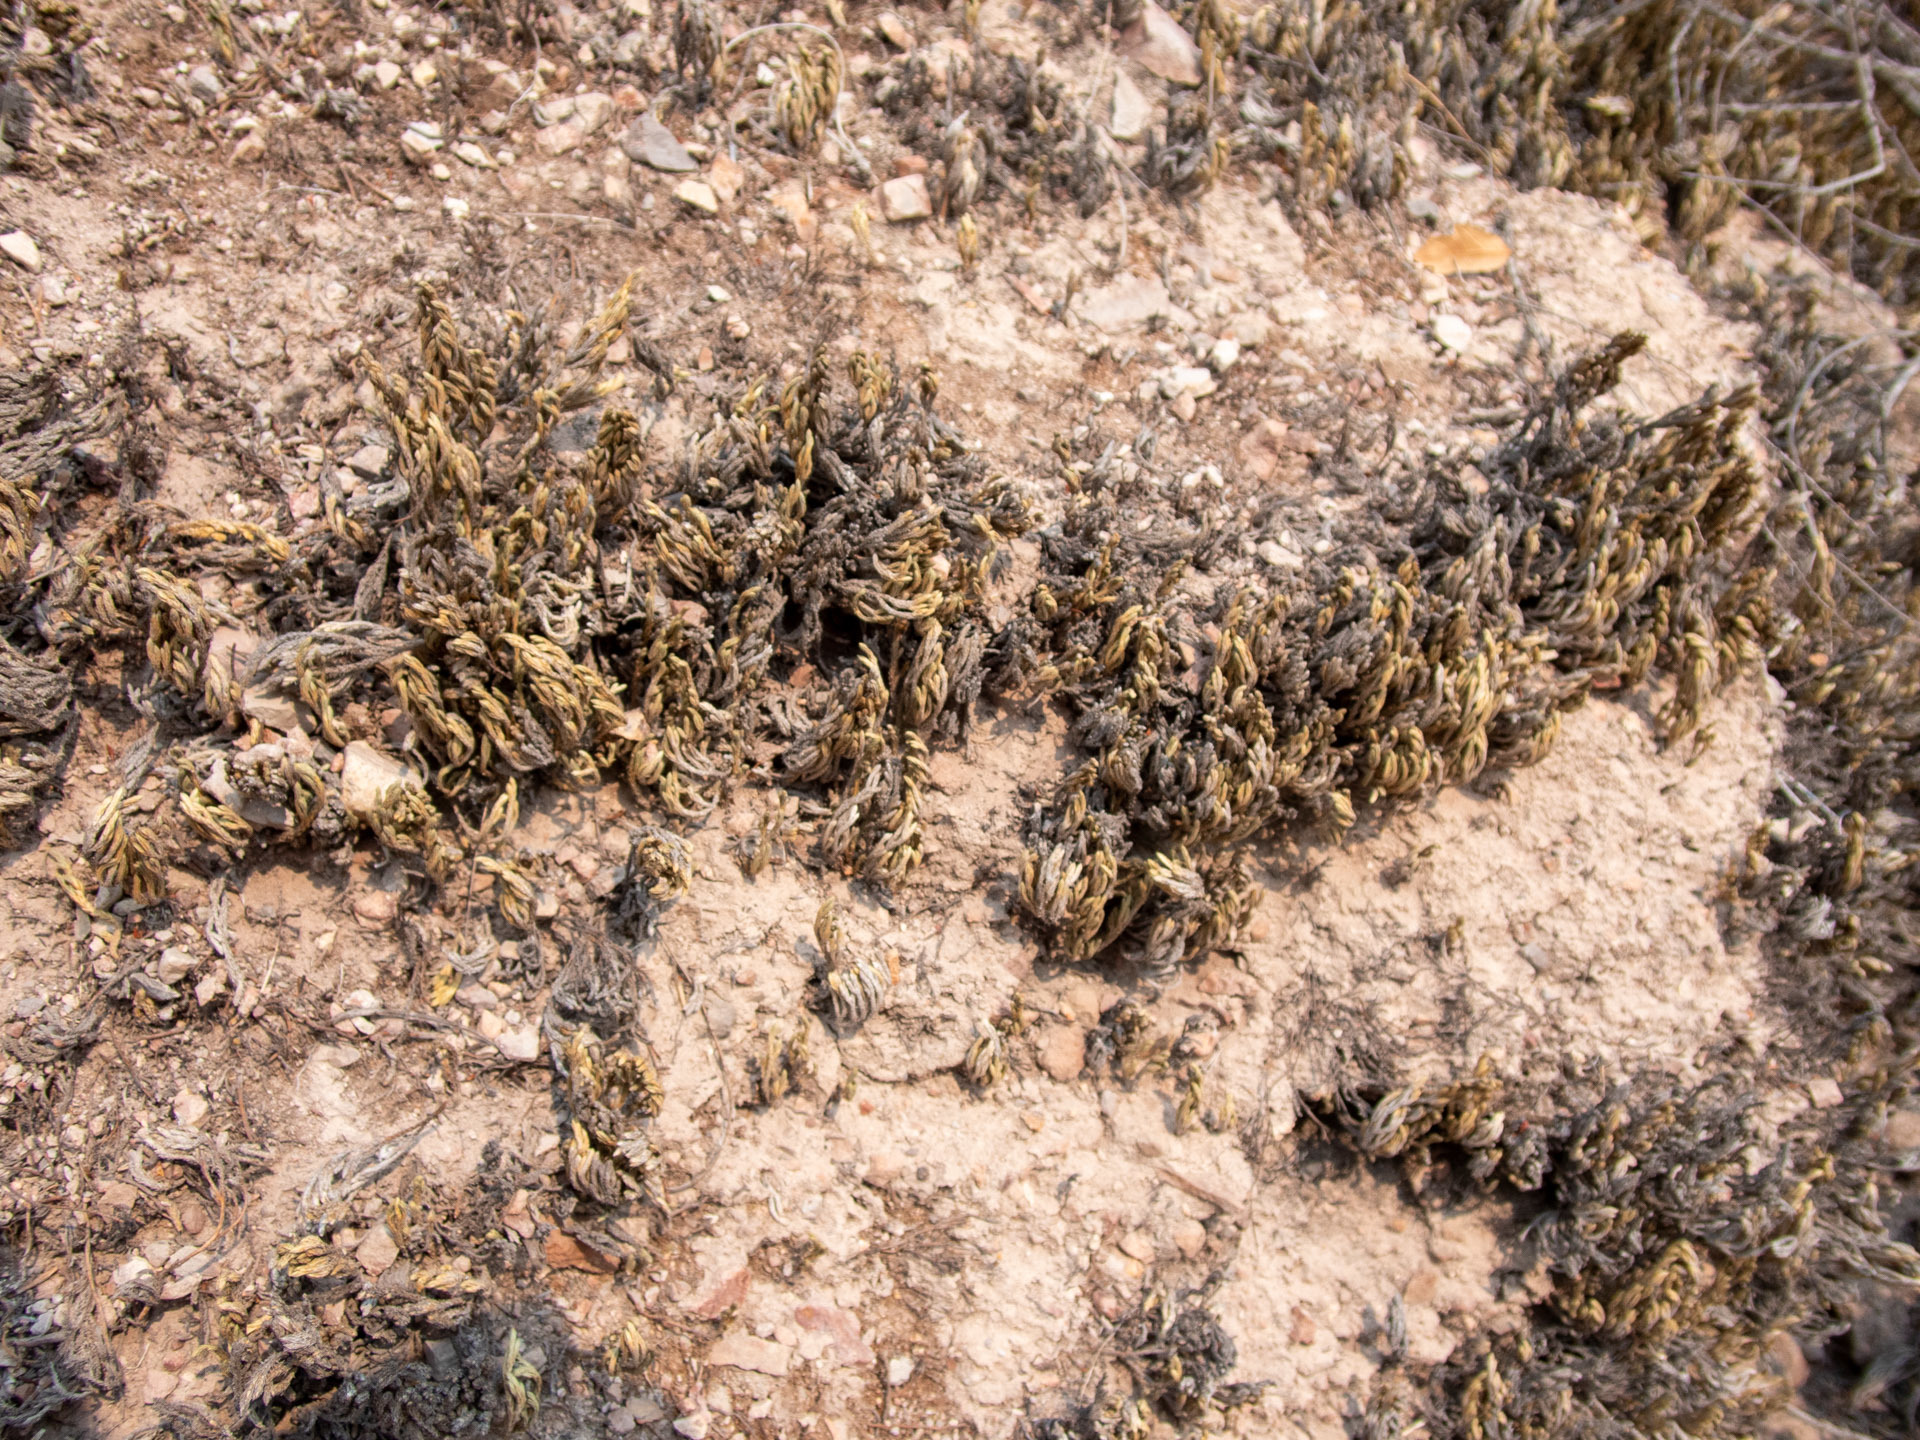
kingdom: Plantae
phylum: Tracheophyta
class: Lycopodiopsida
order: Selaginellales
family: Selaginellaceae
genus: Selaginella
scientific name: Selaginella bigelovii
